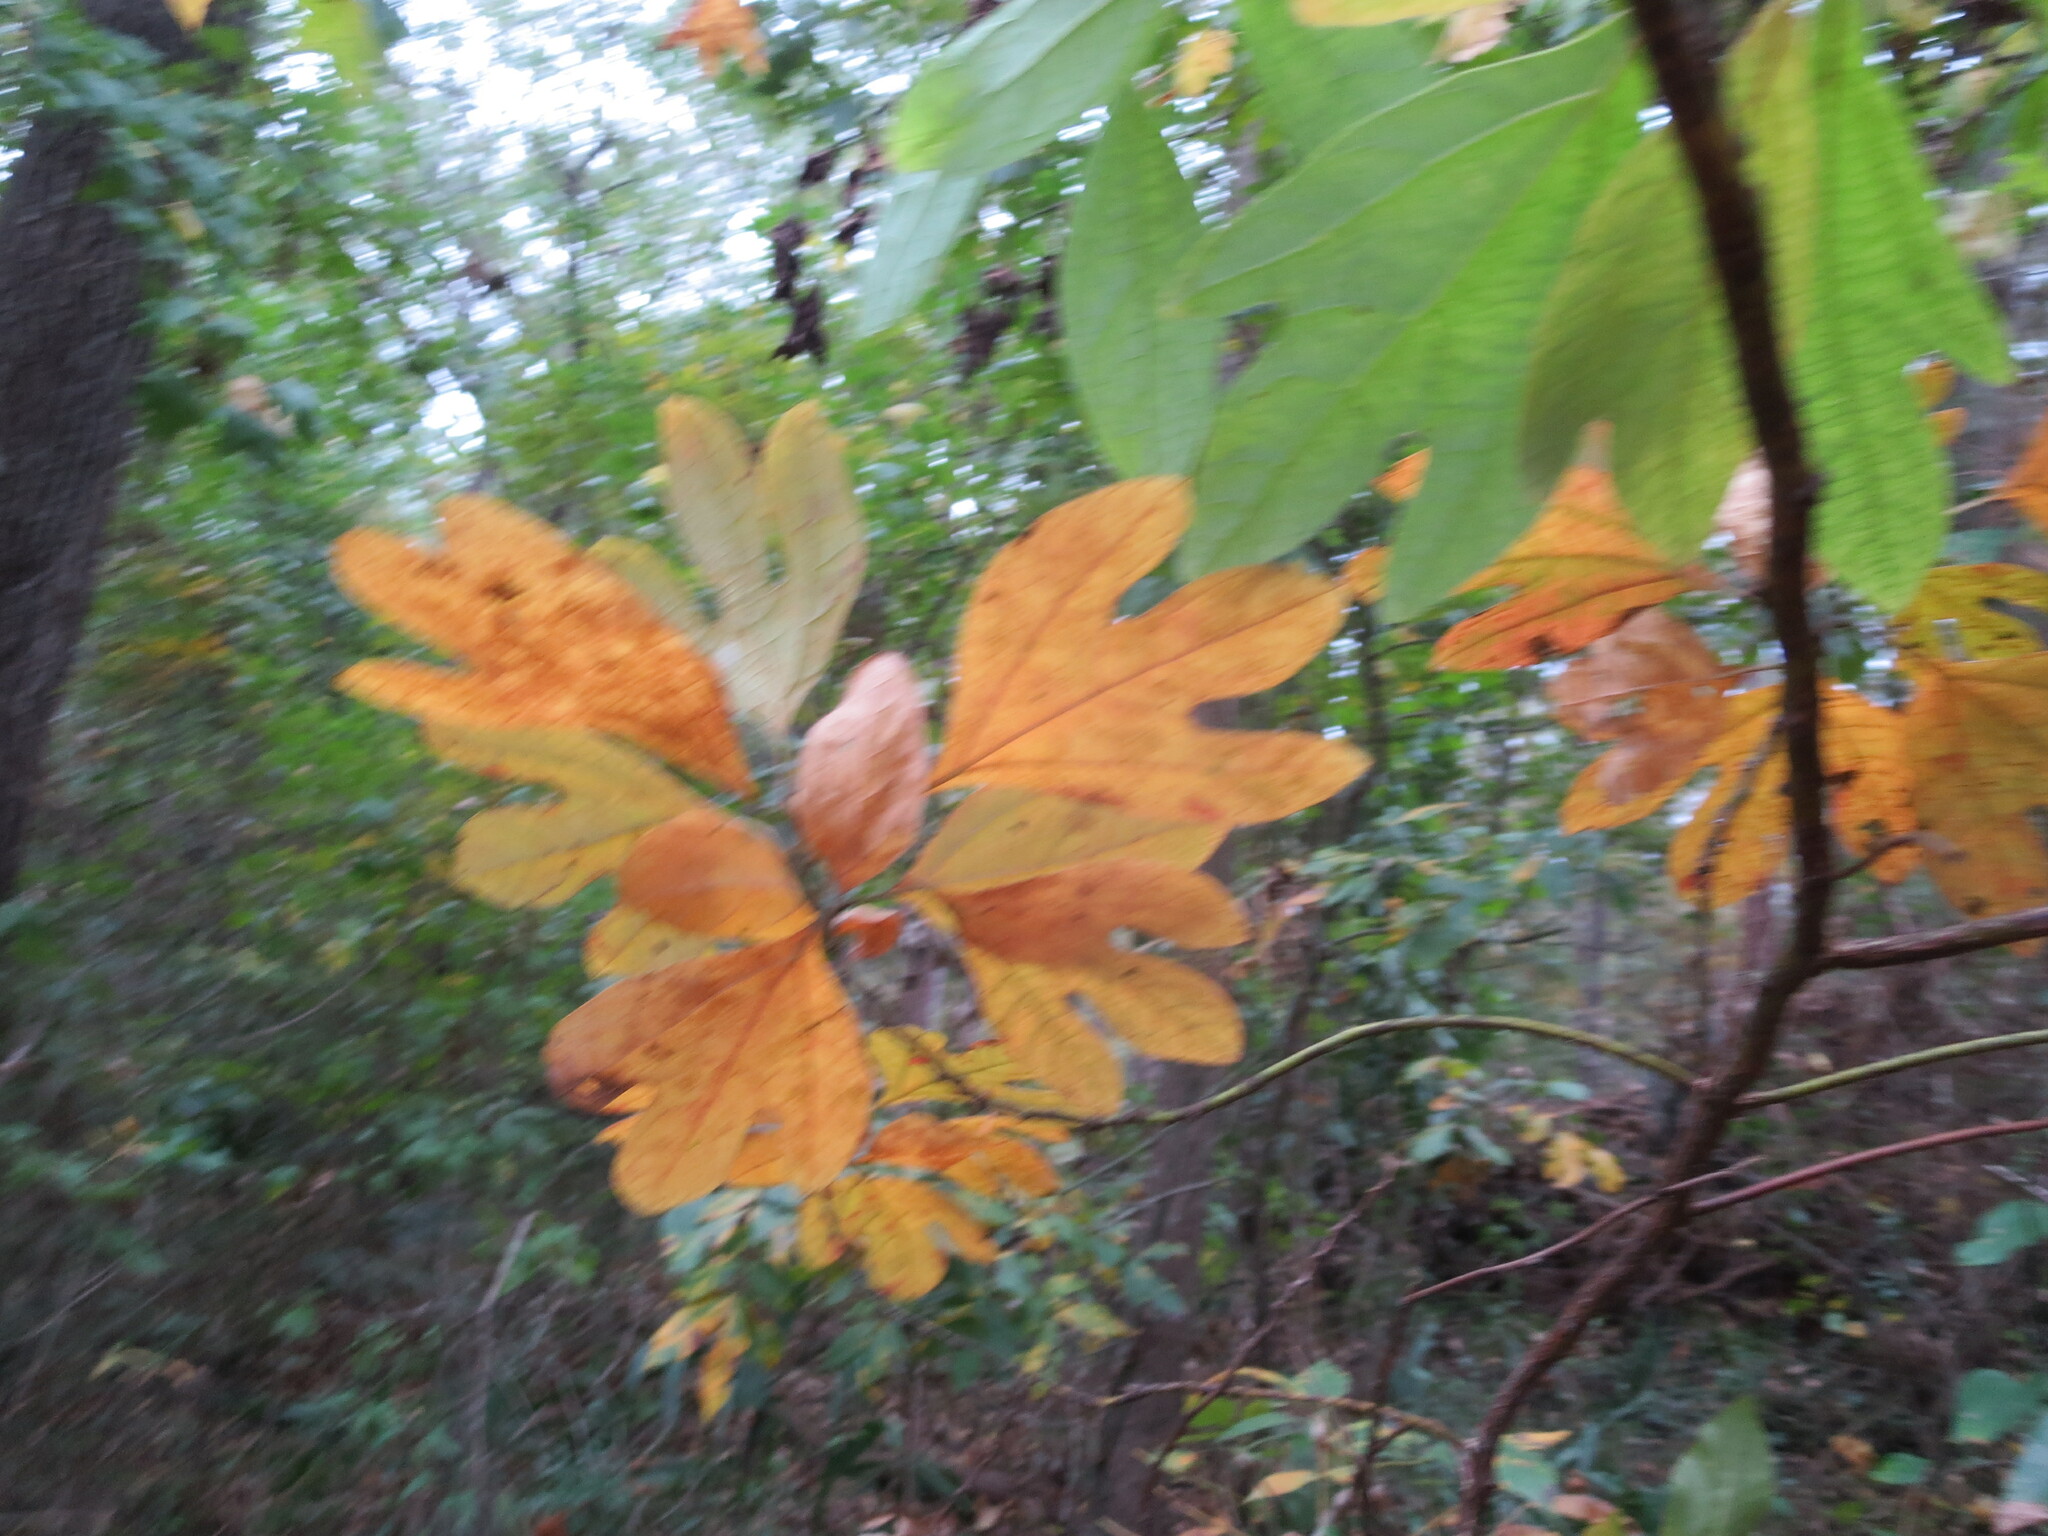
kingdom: Plantae
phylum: Tracheophyta
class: Magnoliopsida
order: Laurales
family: Lauraceae
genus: Sassafras
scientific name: Sassafras albidum
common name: Sassafras
